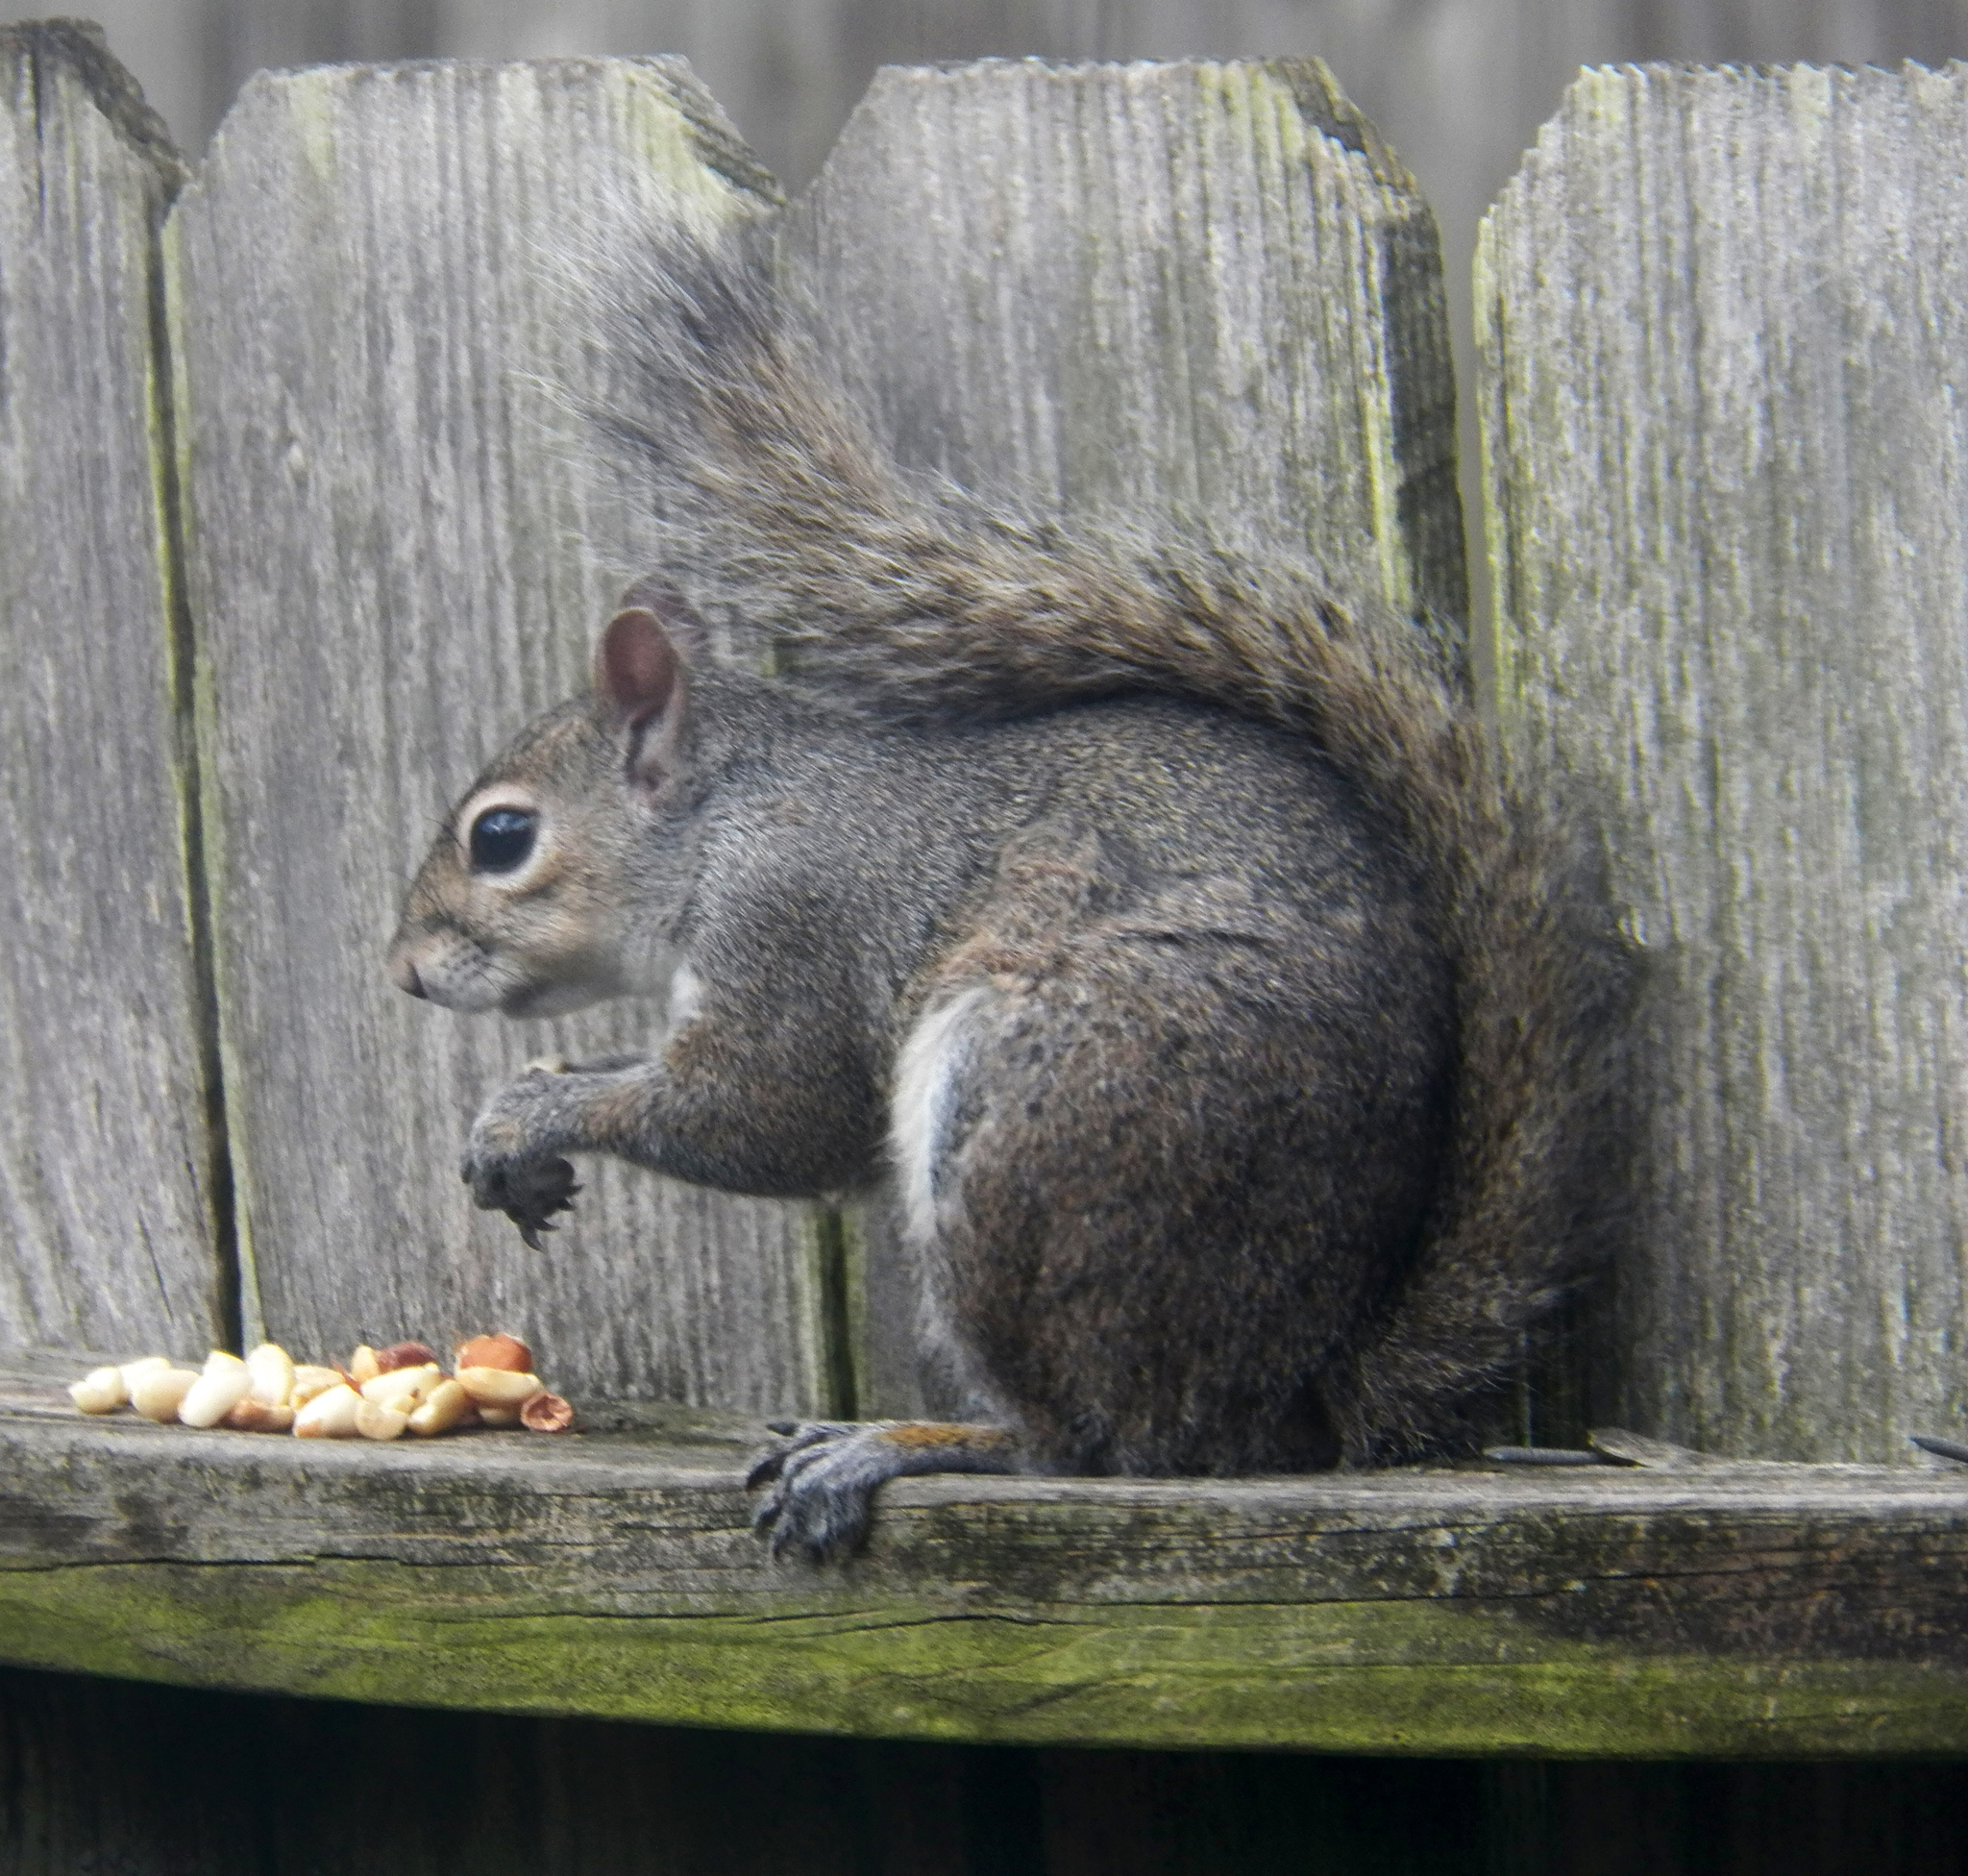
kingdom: Animalia
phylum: Chordata
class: Mammalia
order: Rodentia
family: Sciuridae
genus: Sciurus
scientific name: Sciurus carolinensis
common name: Eastern gray squirrel
